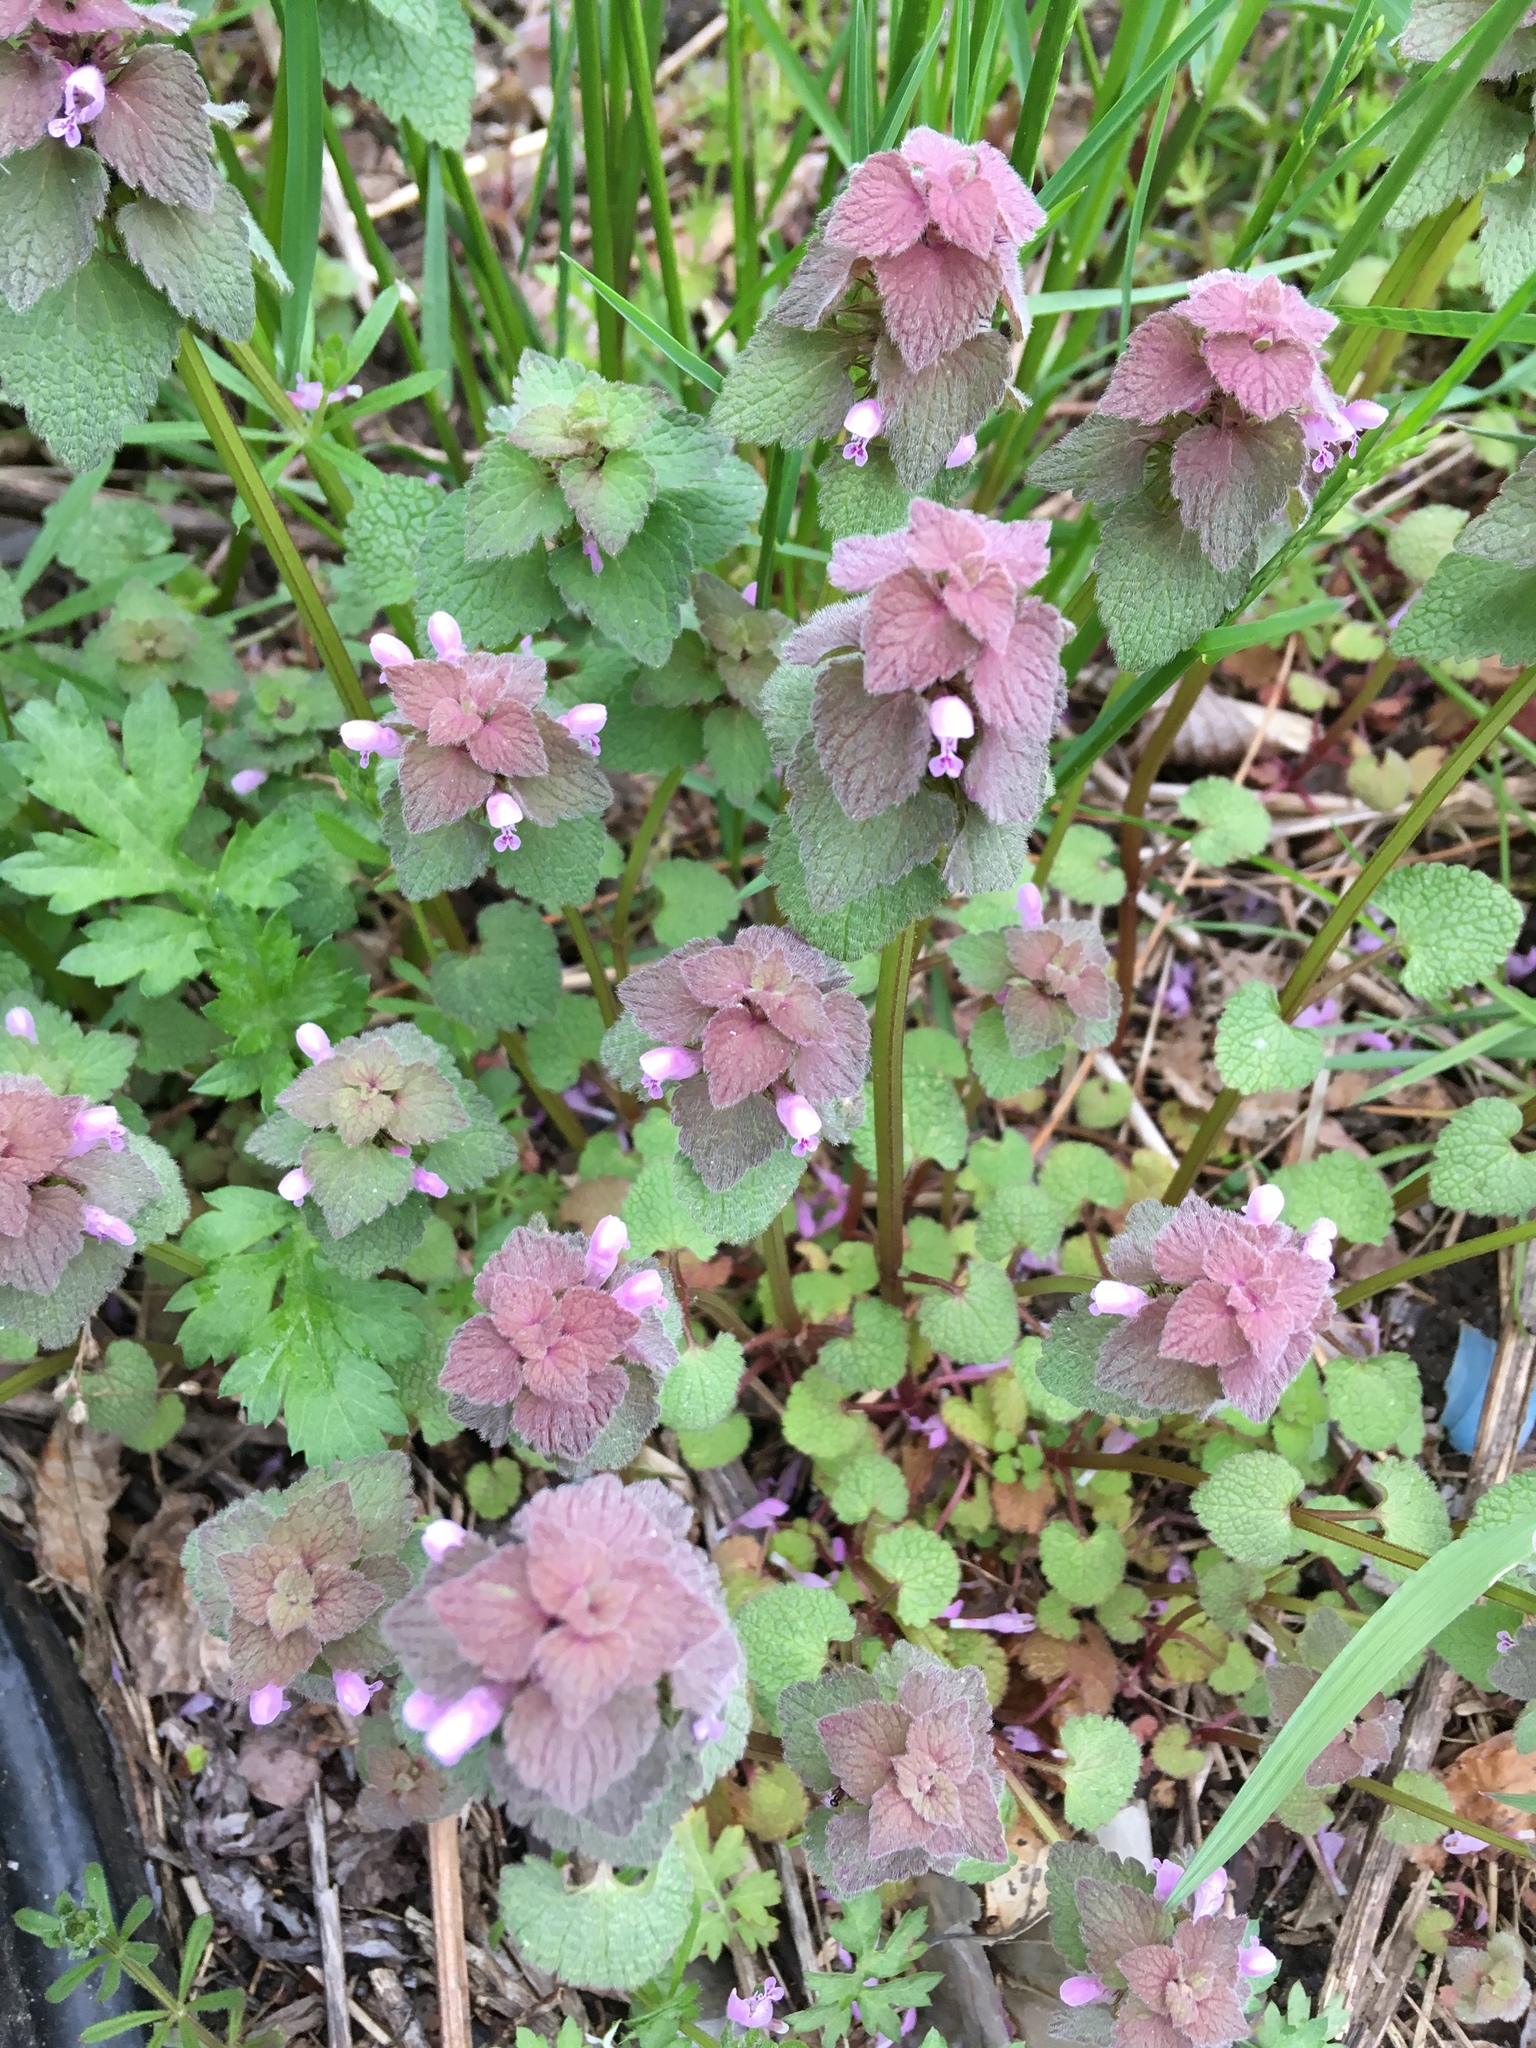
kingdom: Plantae
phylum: Tracheophyta
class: Magnoliopsida
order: Lamiales
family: Lamiaceae
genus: Lamium
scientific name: Lamium purpureum
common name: Red dead-nettle
